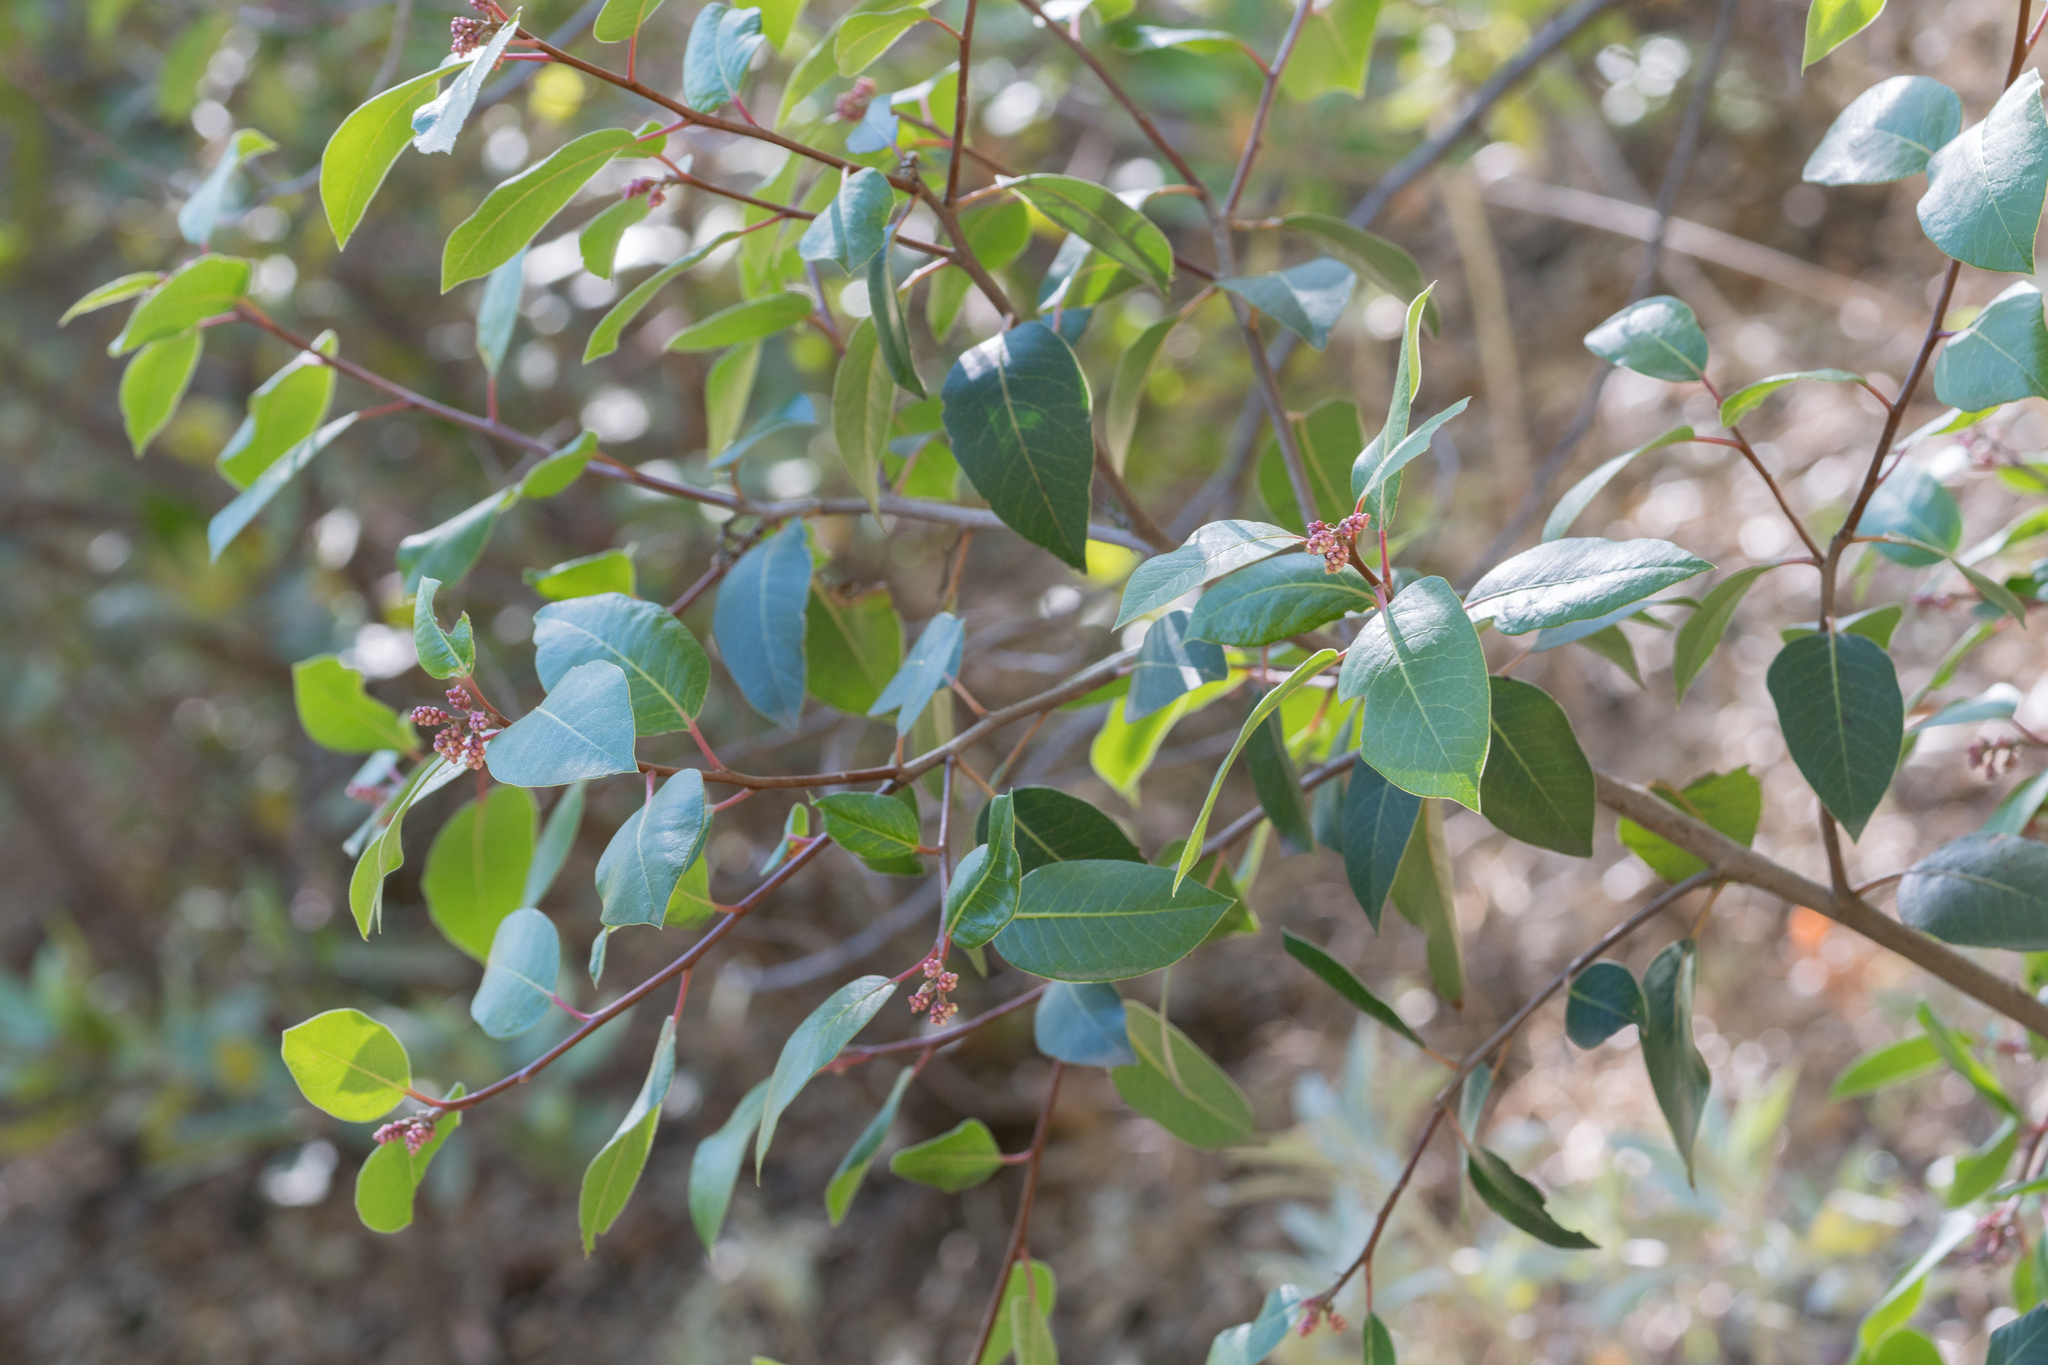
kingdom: Plantae
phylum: Tracheophyta
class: Magnoliopsida
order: Sapindales
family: Anacardiaceae
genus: Rhus
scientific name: Rhus ovata
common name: Sugar sumac
